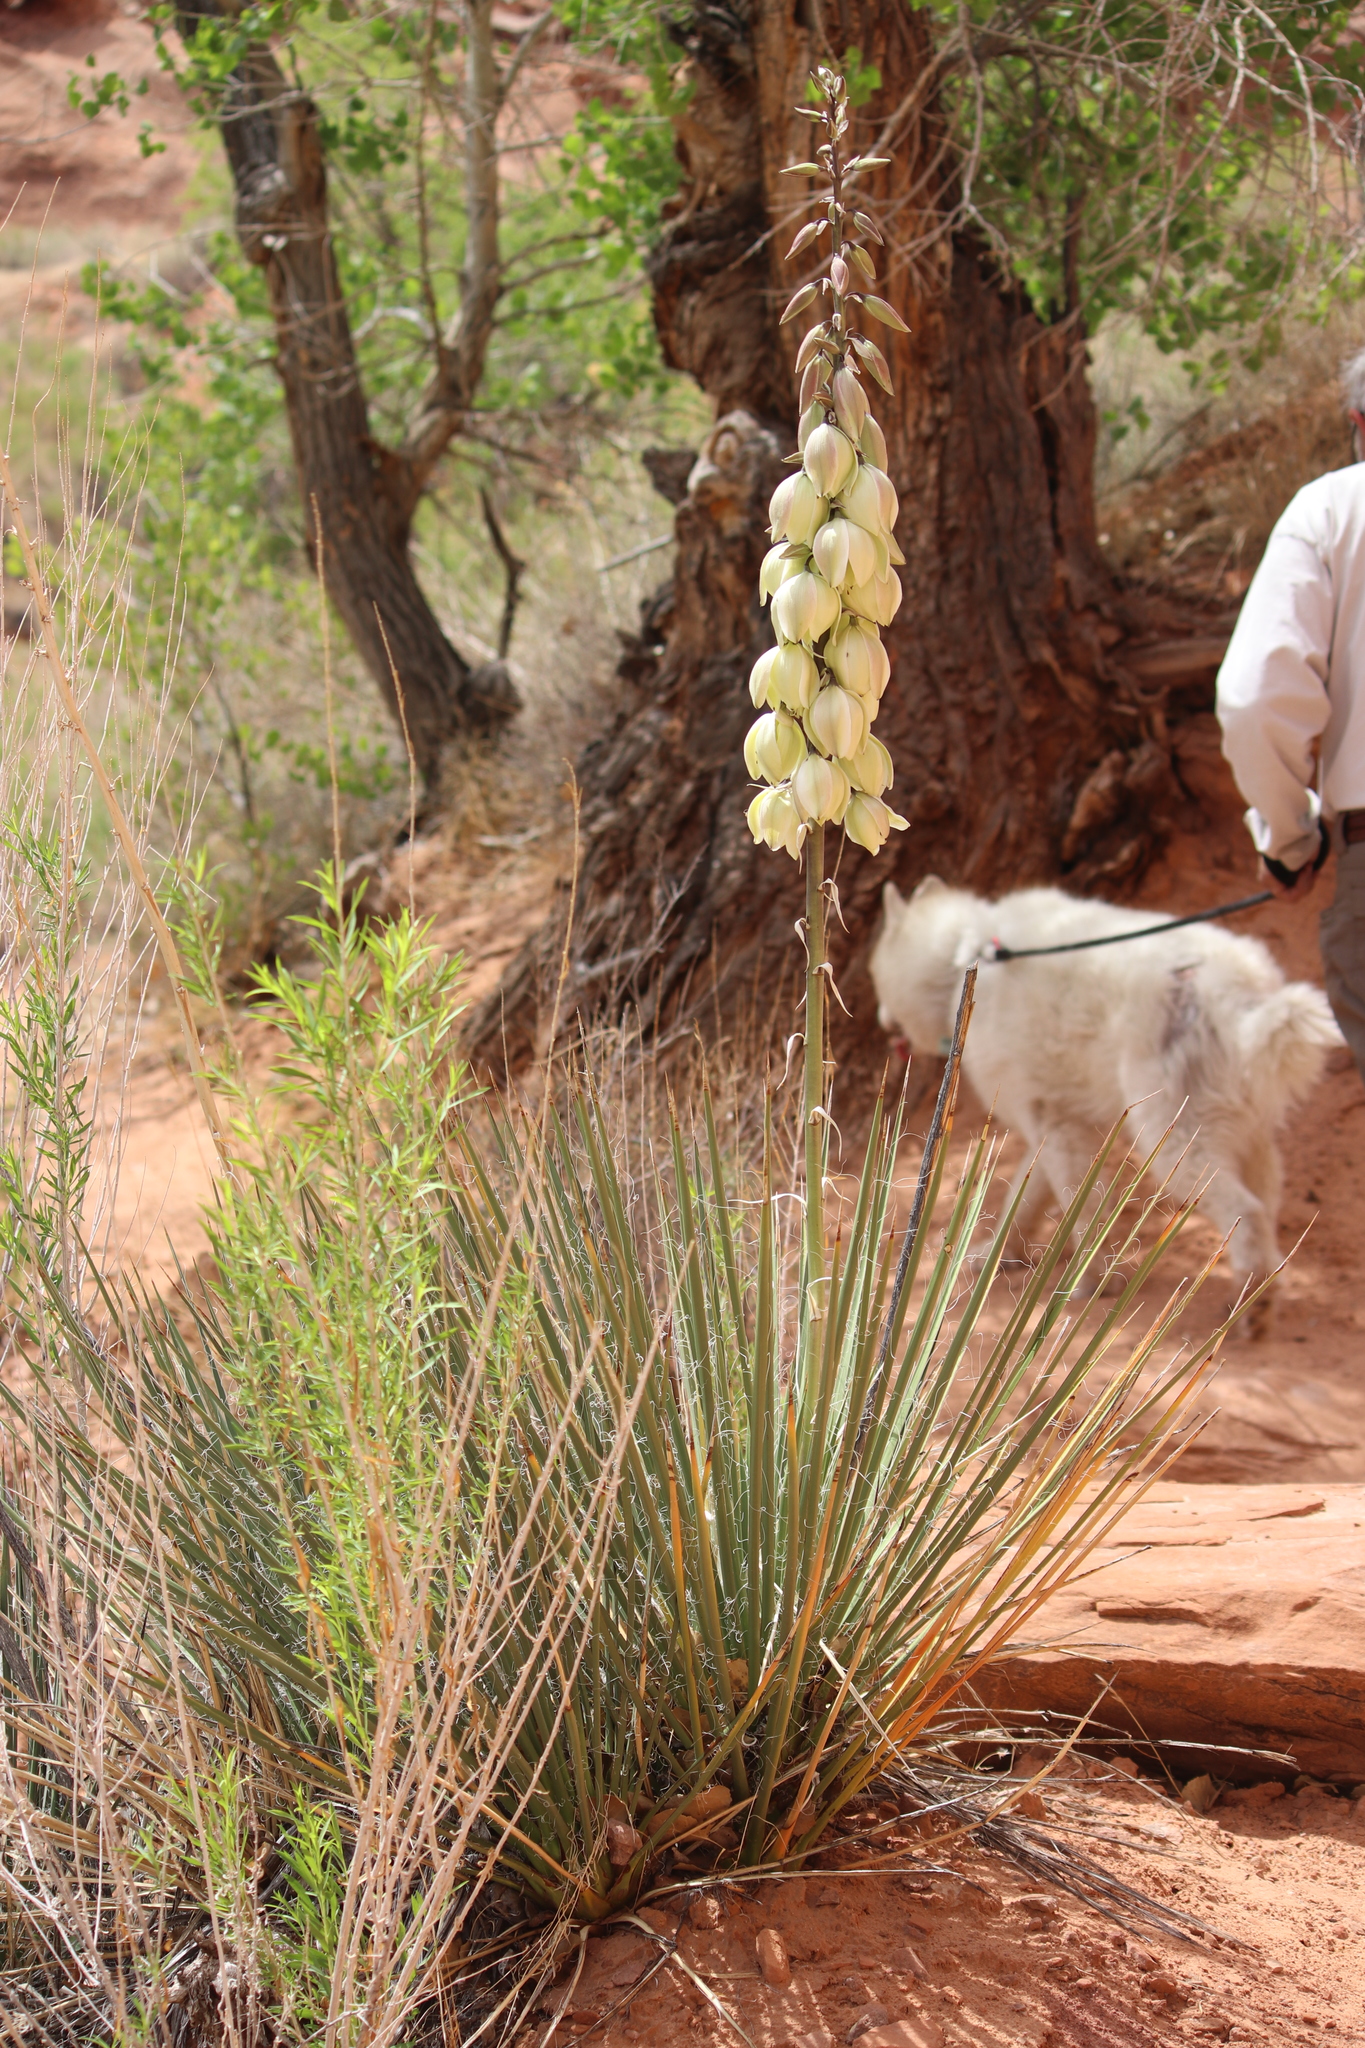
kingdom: Plantae
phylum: Tracheophyta
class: Liliopsida
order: Asparagales
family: Asparagaceae
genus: Yucca
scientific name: Yucca angustissima
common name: Narrowleaf yucca
